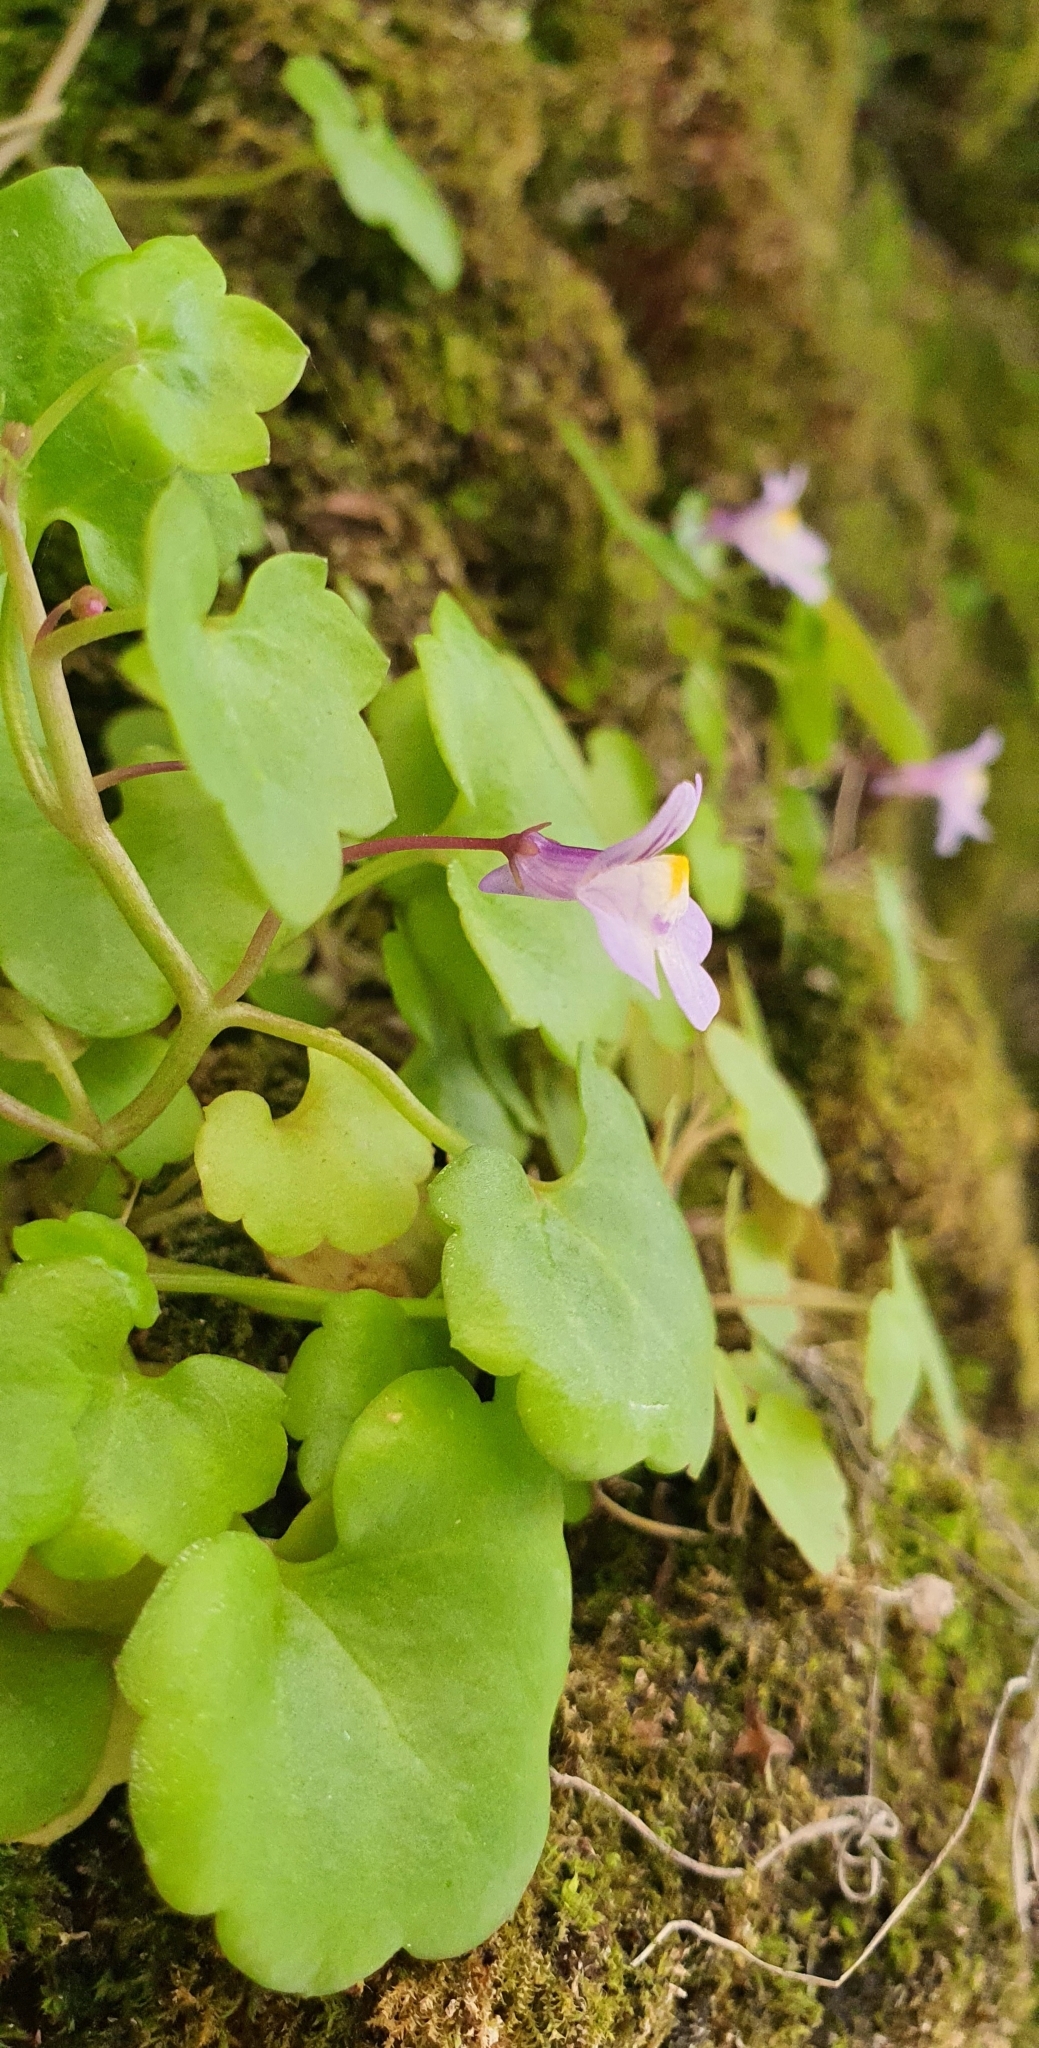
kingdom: Plantae
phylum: Tracheophyta
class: Magnoliopsida
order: Lamiales
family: Plantaginaceae
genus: Cymbalaria
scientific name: Cymbalaria muralis
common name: Ivy-leaved toadflax
